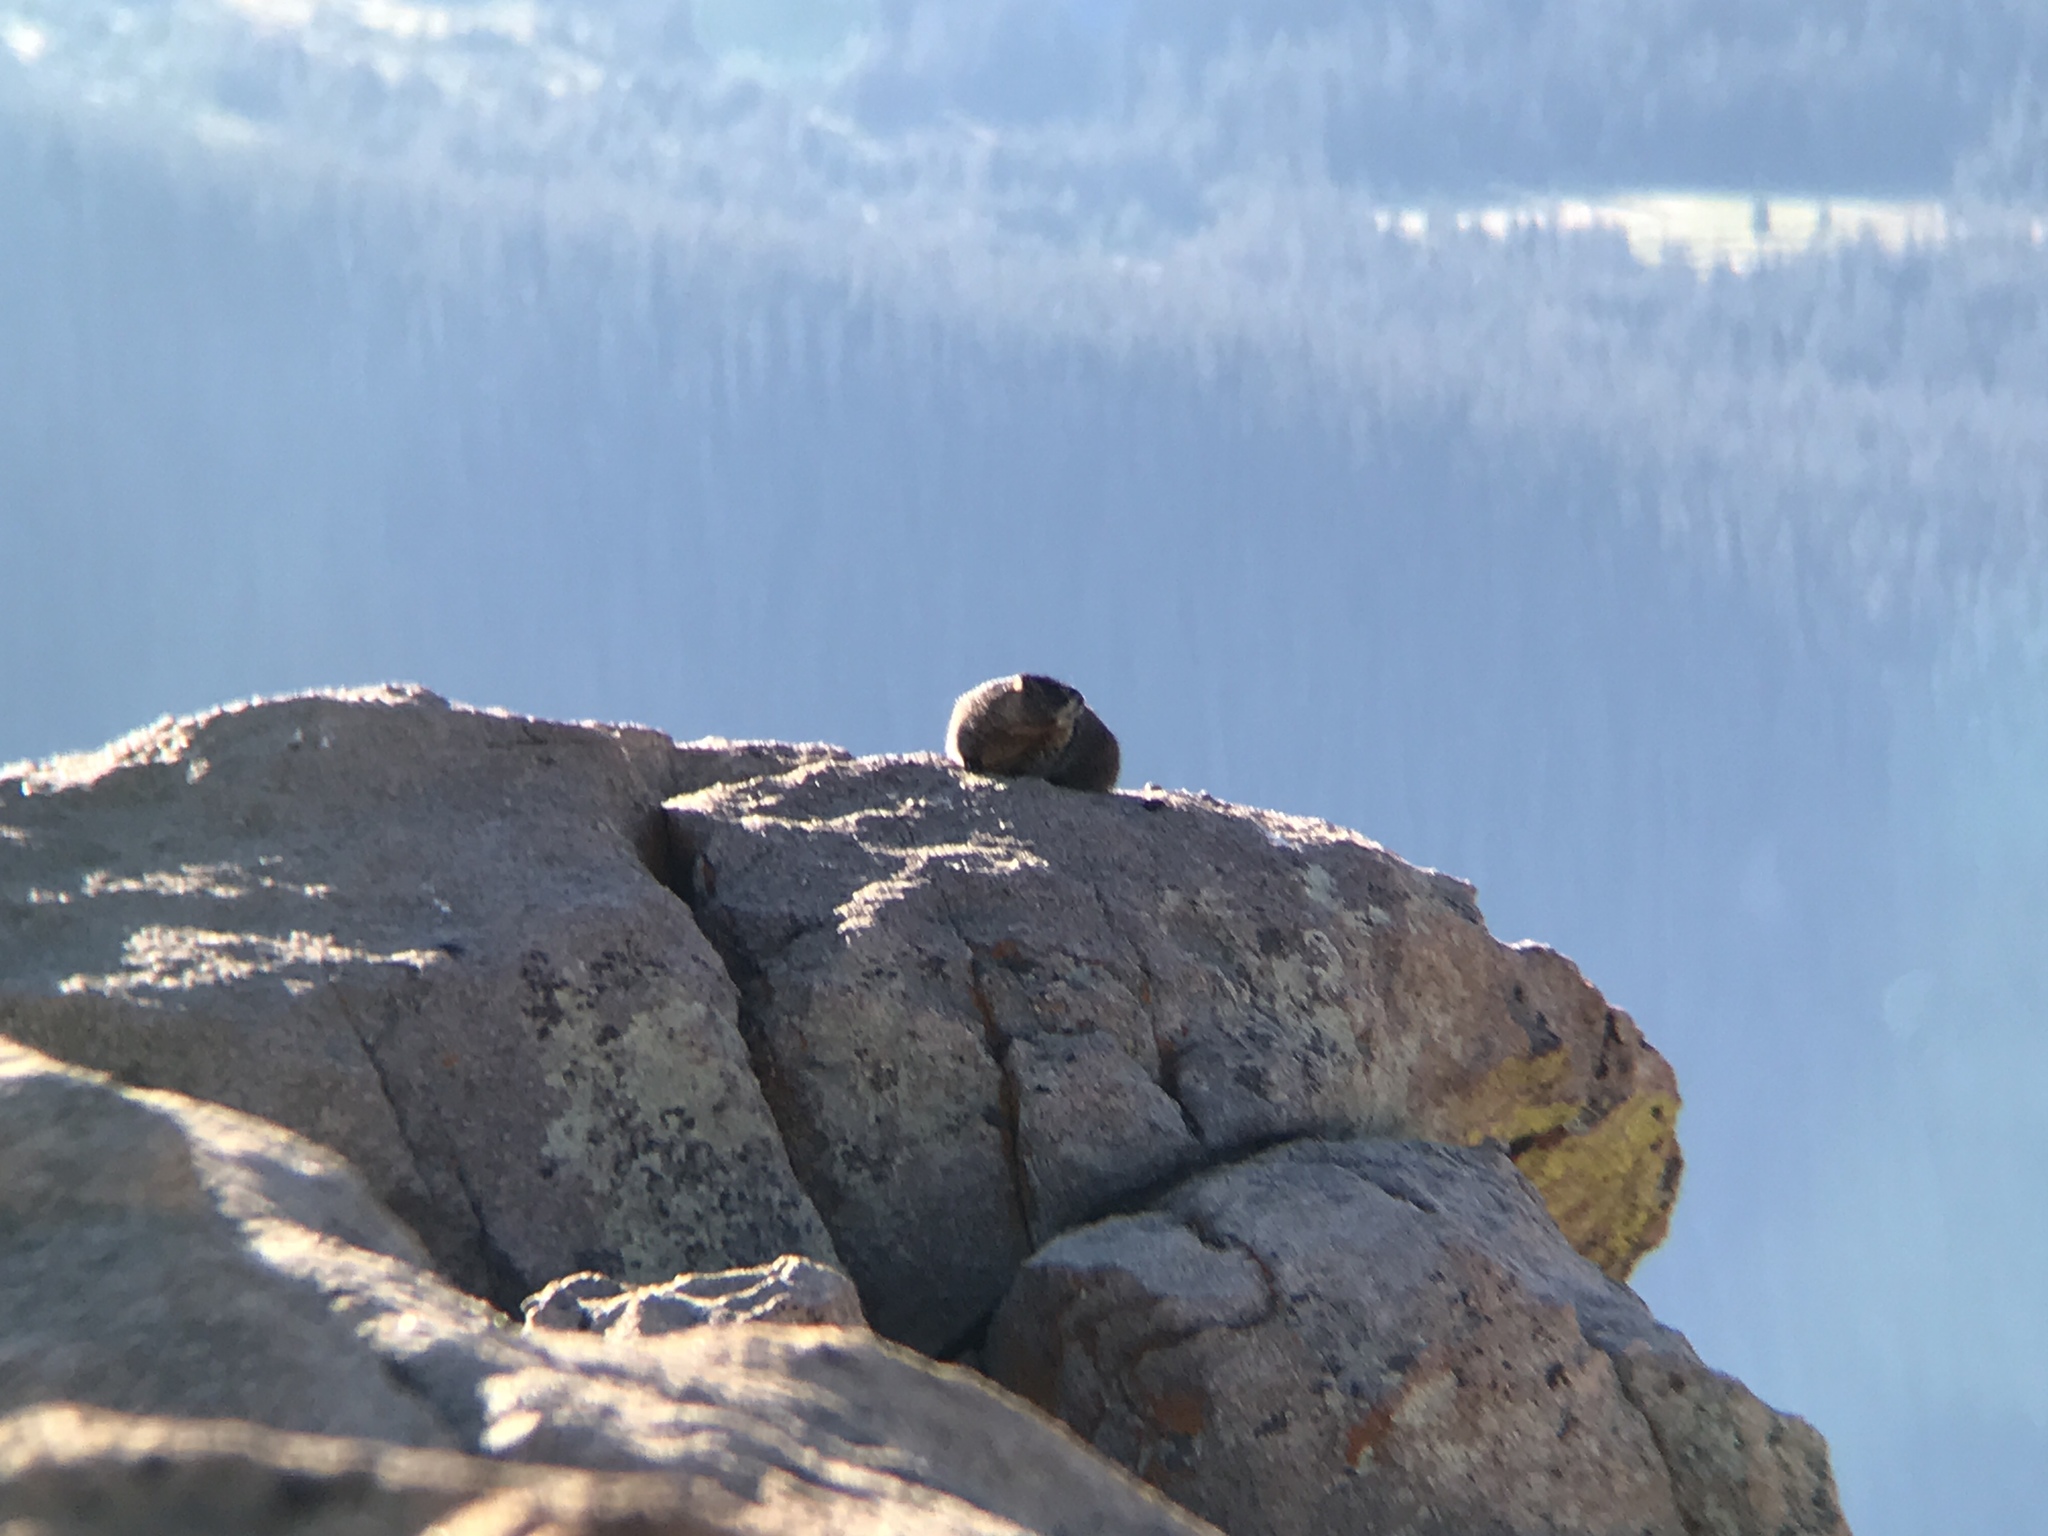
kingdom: Animalia
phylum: Chordata
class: Mammalia
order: Rodentia
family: Sciuridae
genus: Marmota
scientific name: Marmota flaviventris
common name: Yellow-bellied marmot
